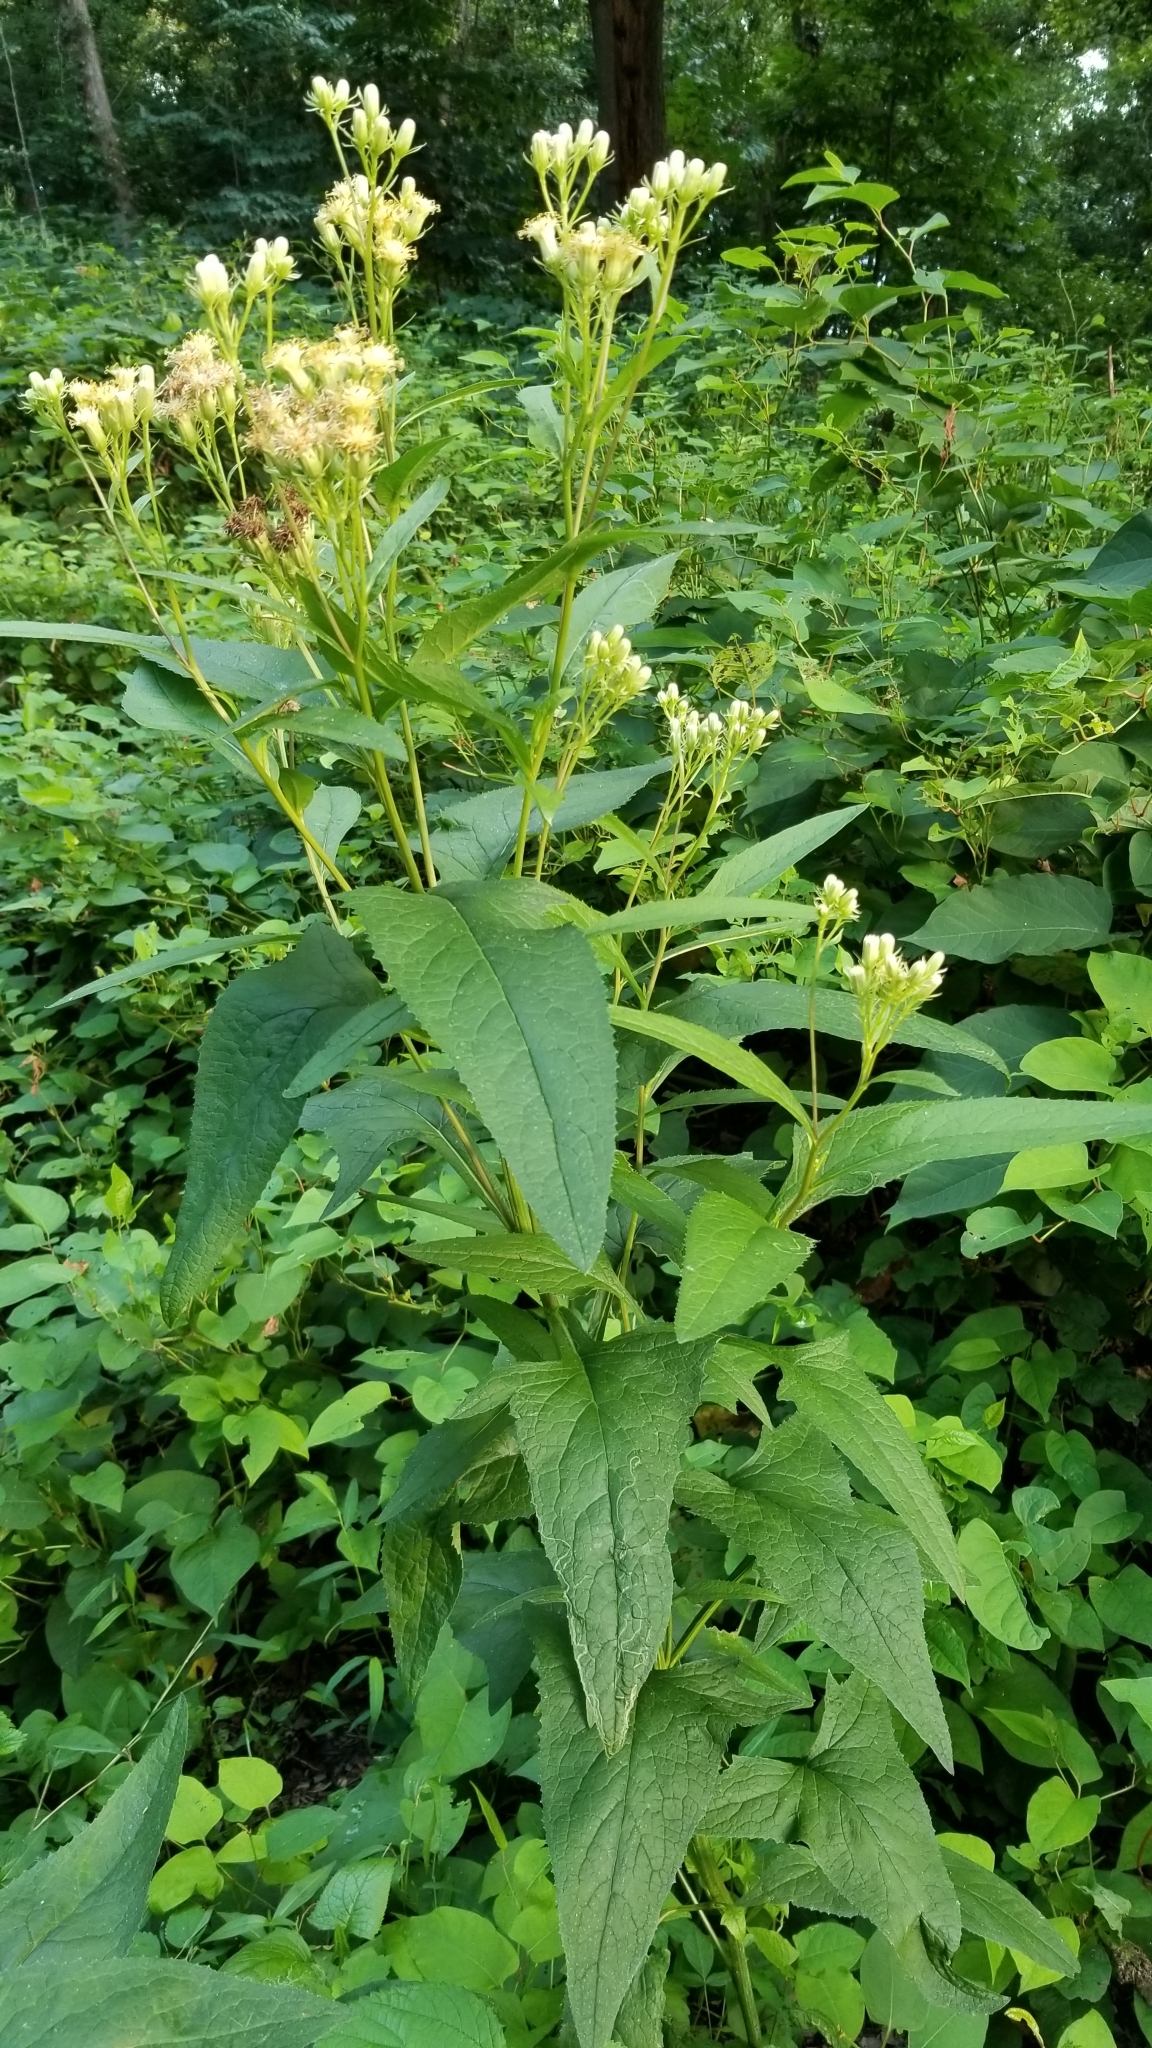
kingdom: Plantae
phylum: Tracheophyta
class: Magnoliopsida
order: Asterales
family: Asteraceae
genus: Hasteola
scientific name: Hasteola suaveolens
